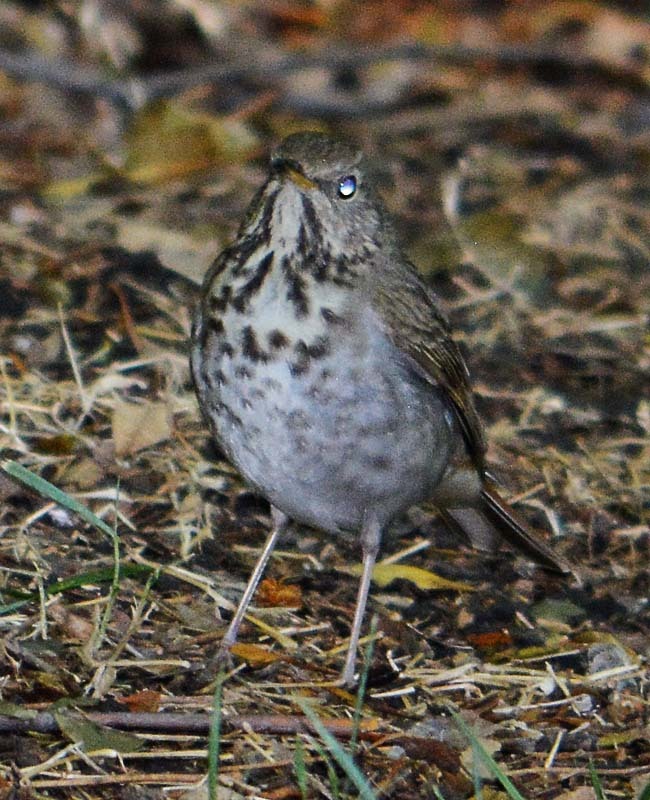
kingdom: Animalia
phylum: Chordata
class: Aves
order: Passeriformes
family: Turdidae
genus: Catharus
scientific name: Catharus guttatus
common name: Hermit thrush
